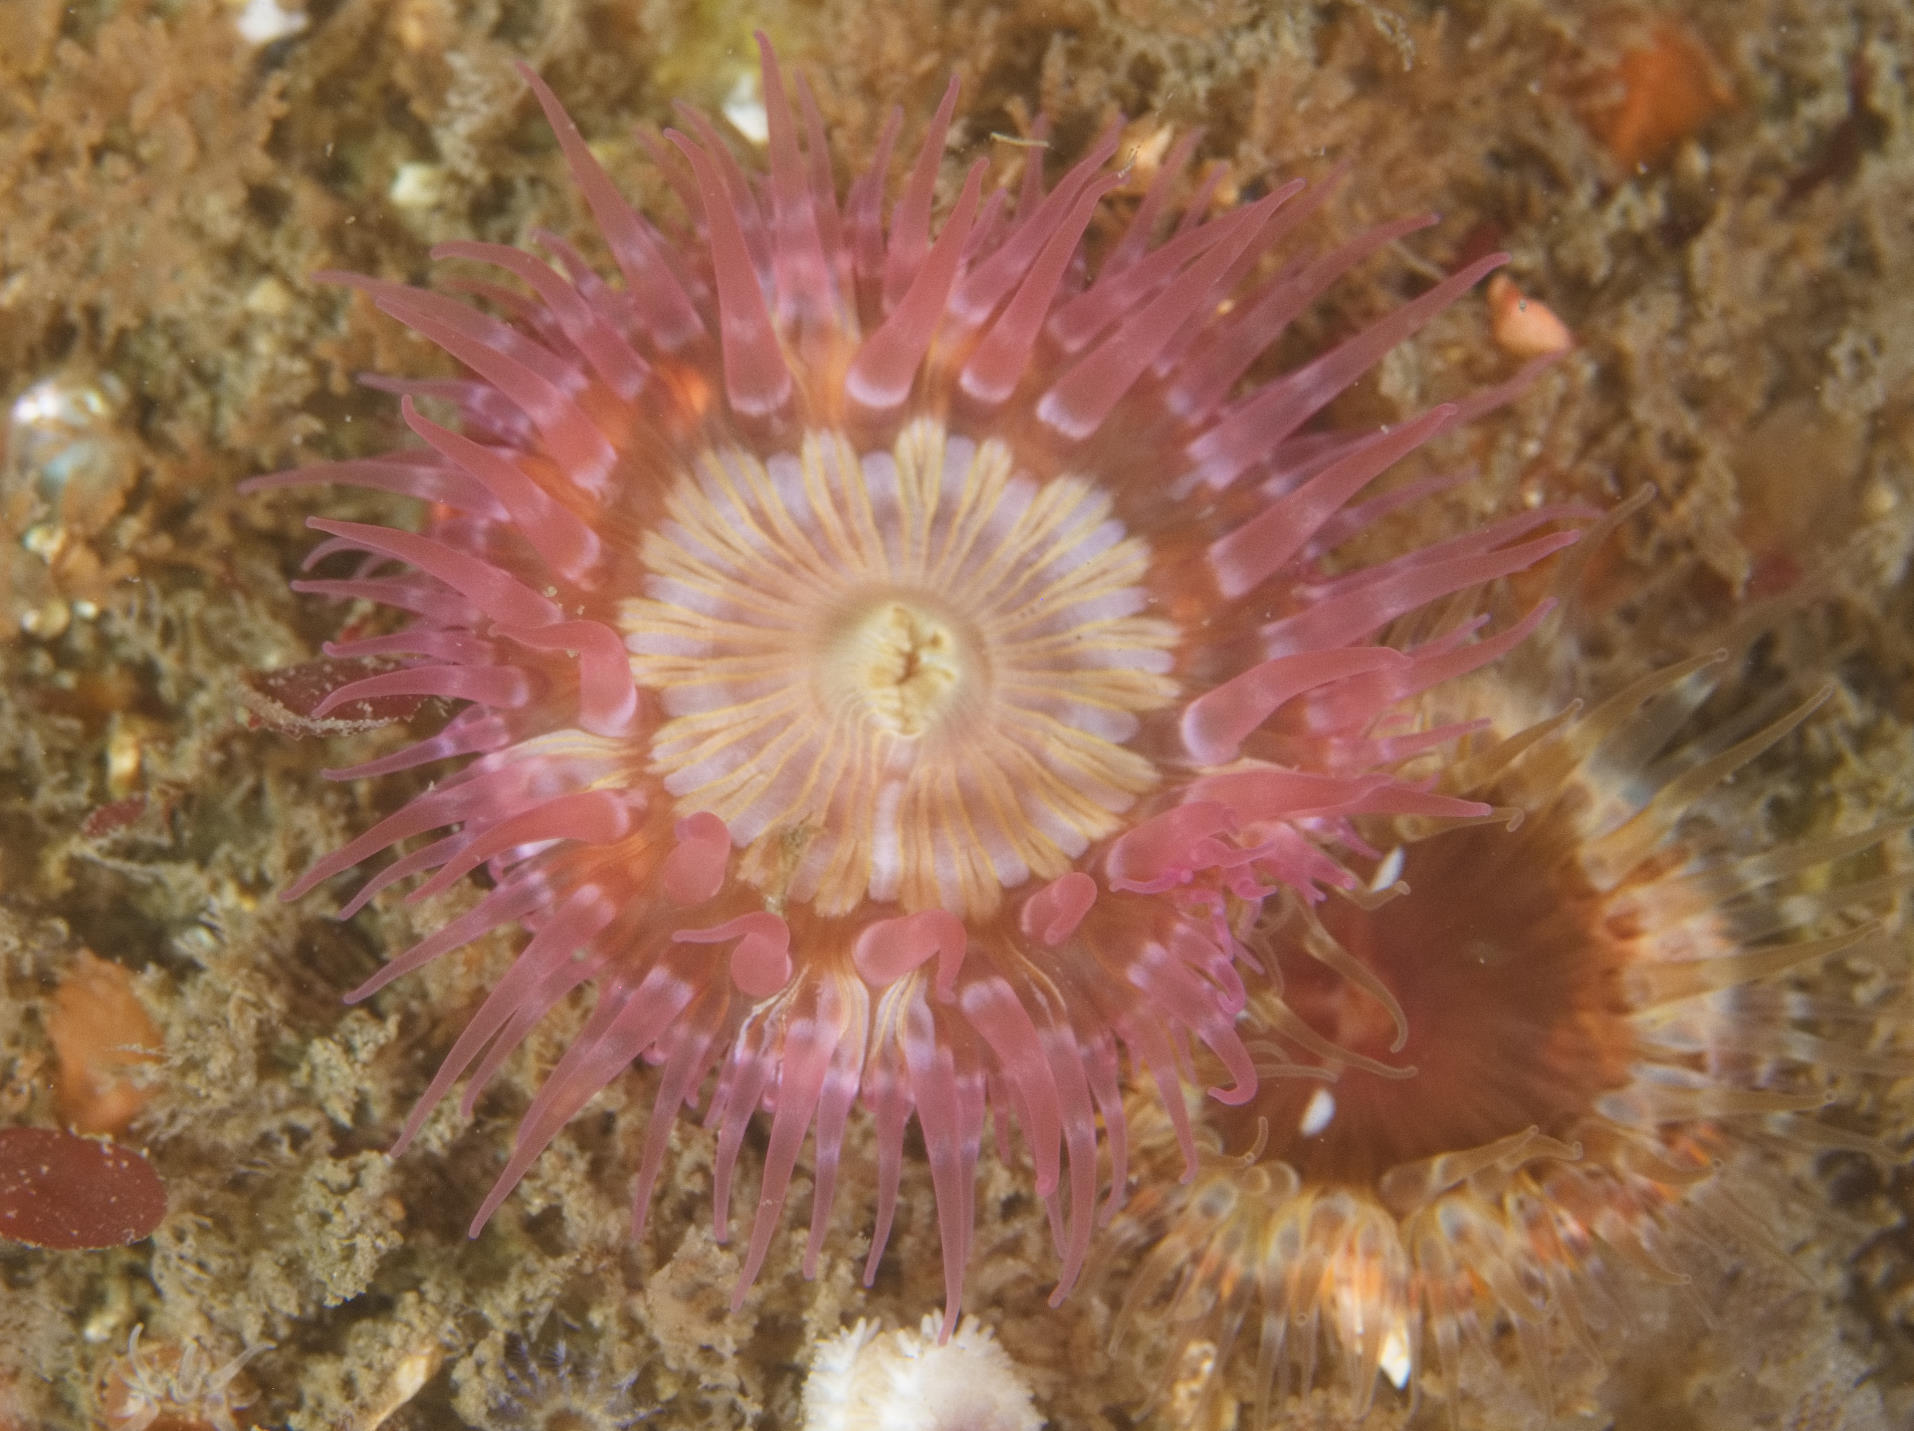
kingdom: Animalia
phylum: Cnidaria
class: Anthozoa
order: Actiniaria
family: Sagartiidae
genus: Cylista
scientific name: Cylista elegans
